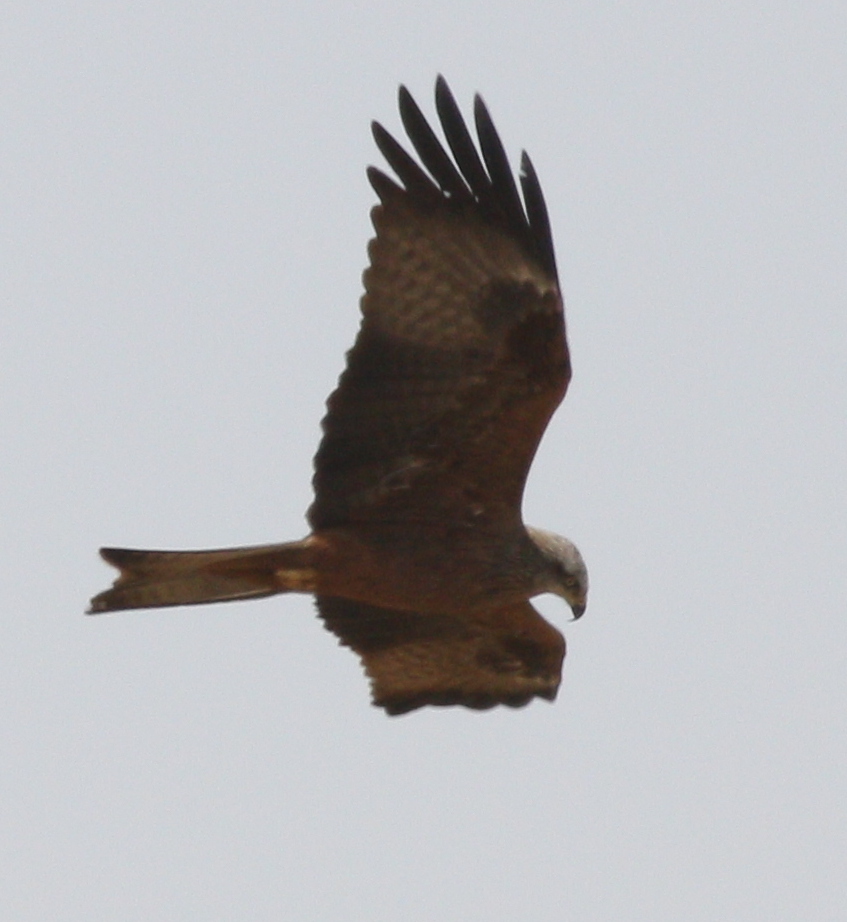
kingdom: Animalia
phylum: Chordata
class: Aves
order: Accipitriformes
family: Accipitridae
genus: Milvus
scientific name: Milvus migrans
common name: Black kite
